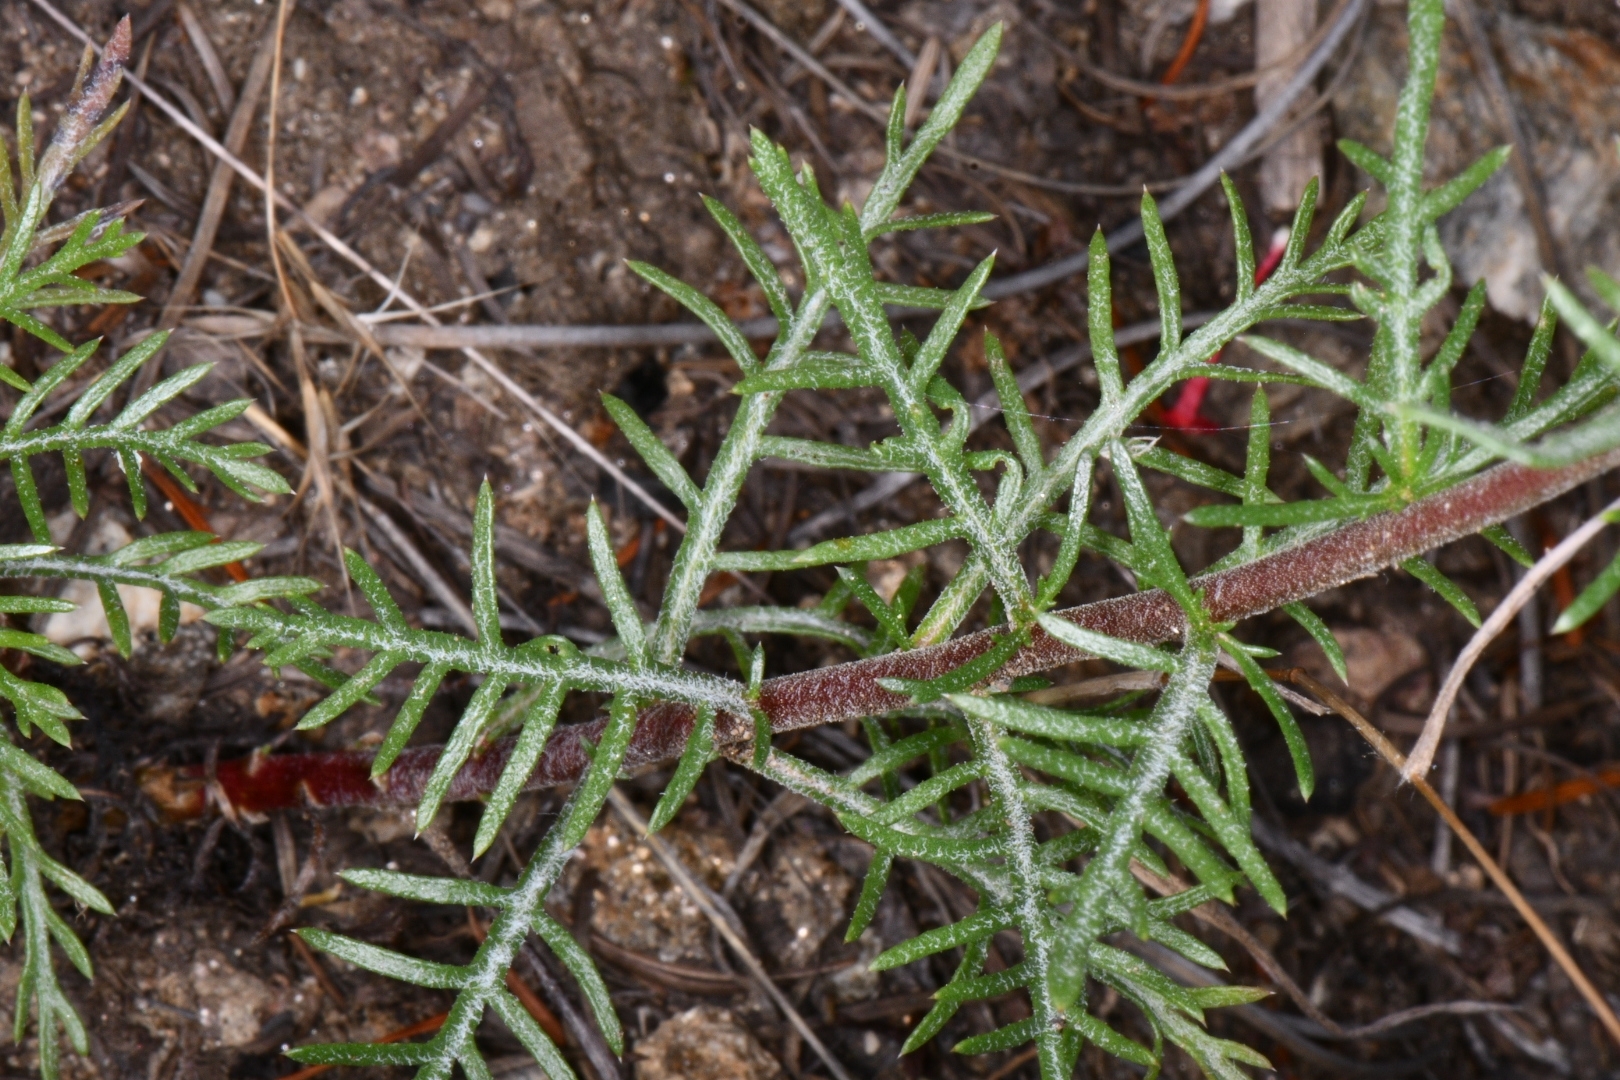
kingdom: Plantae
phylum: Tracheophyta
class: Magnoliopsida
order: Ericales
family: Polemoniaceae
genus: Ipomopsis
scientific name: Ipomopsis aggregata
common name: Scarlet gilia
